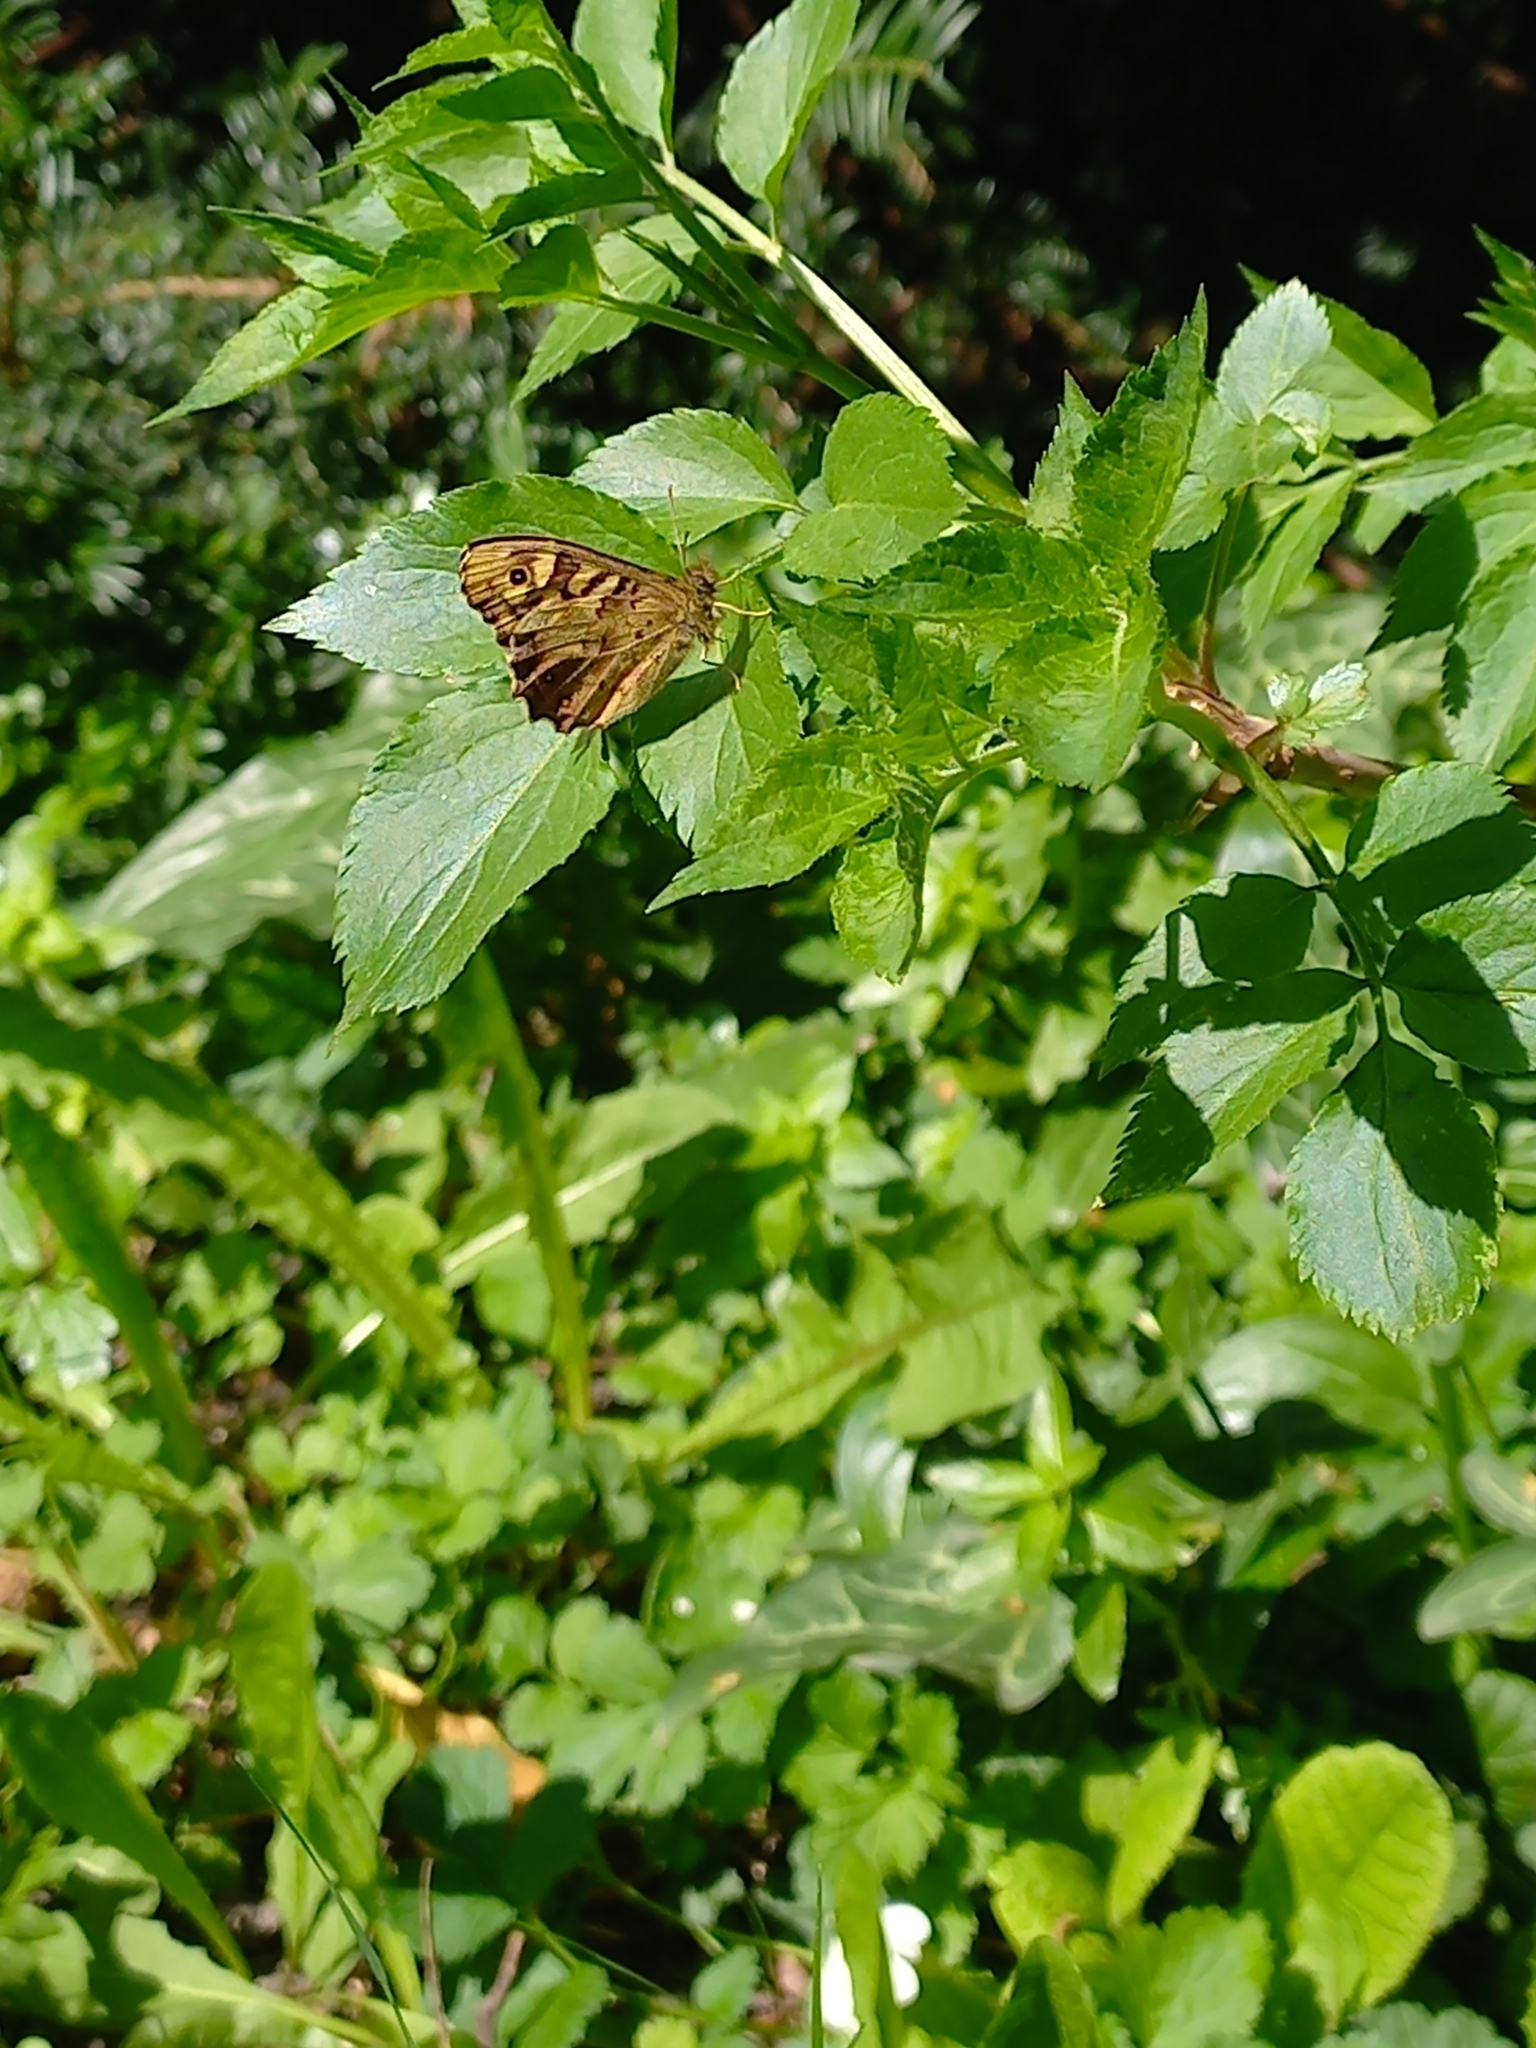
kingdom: Animalia
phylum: Arthropoda
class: Insecta
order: Lepidoptera
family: Nymphalidae
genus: Pararge
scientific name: Pararge aegeria
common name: Speckled wood
